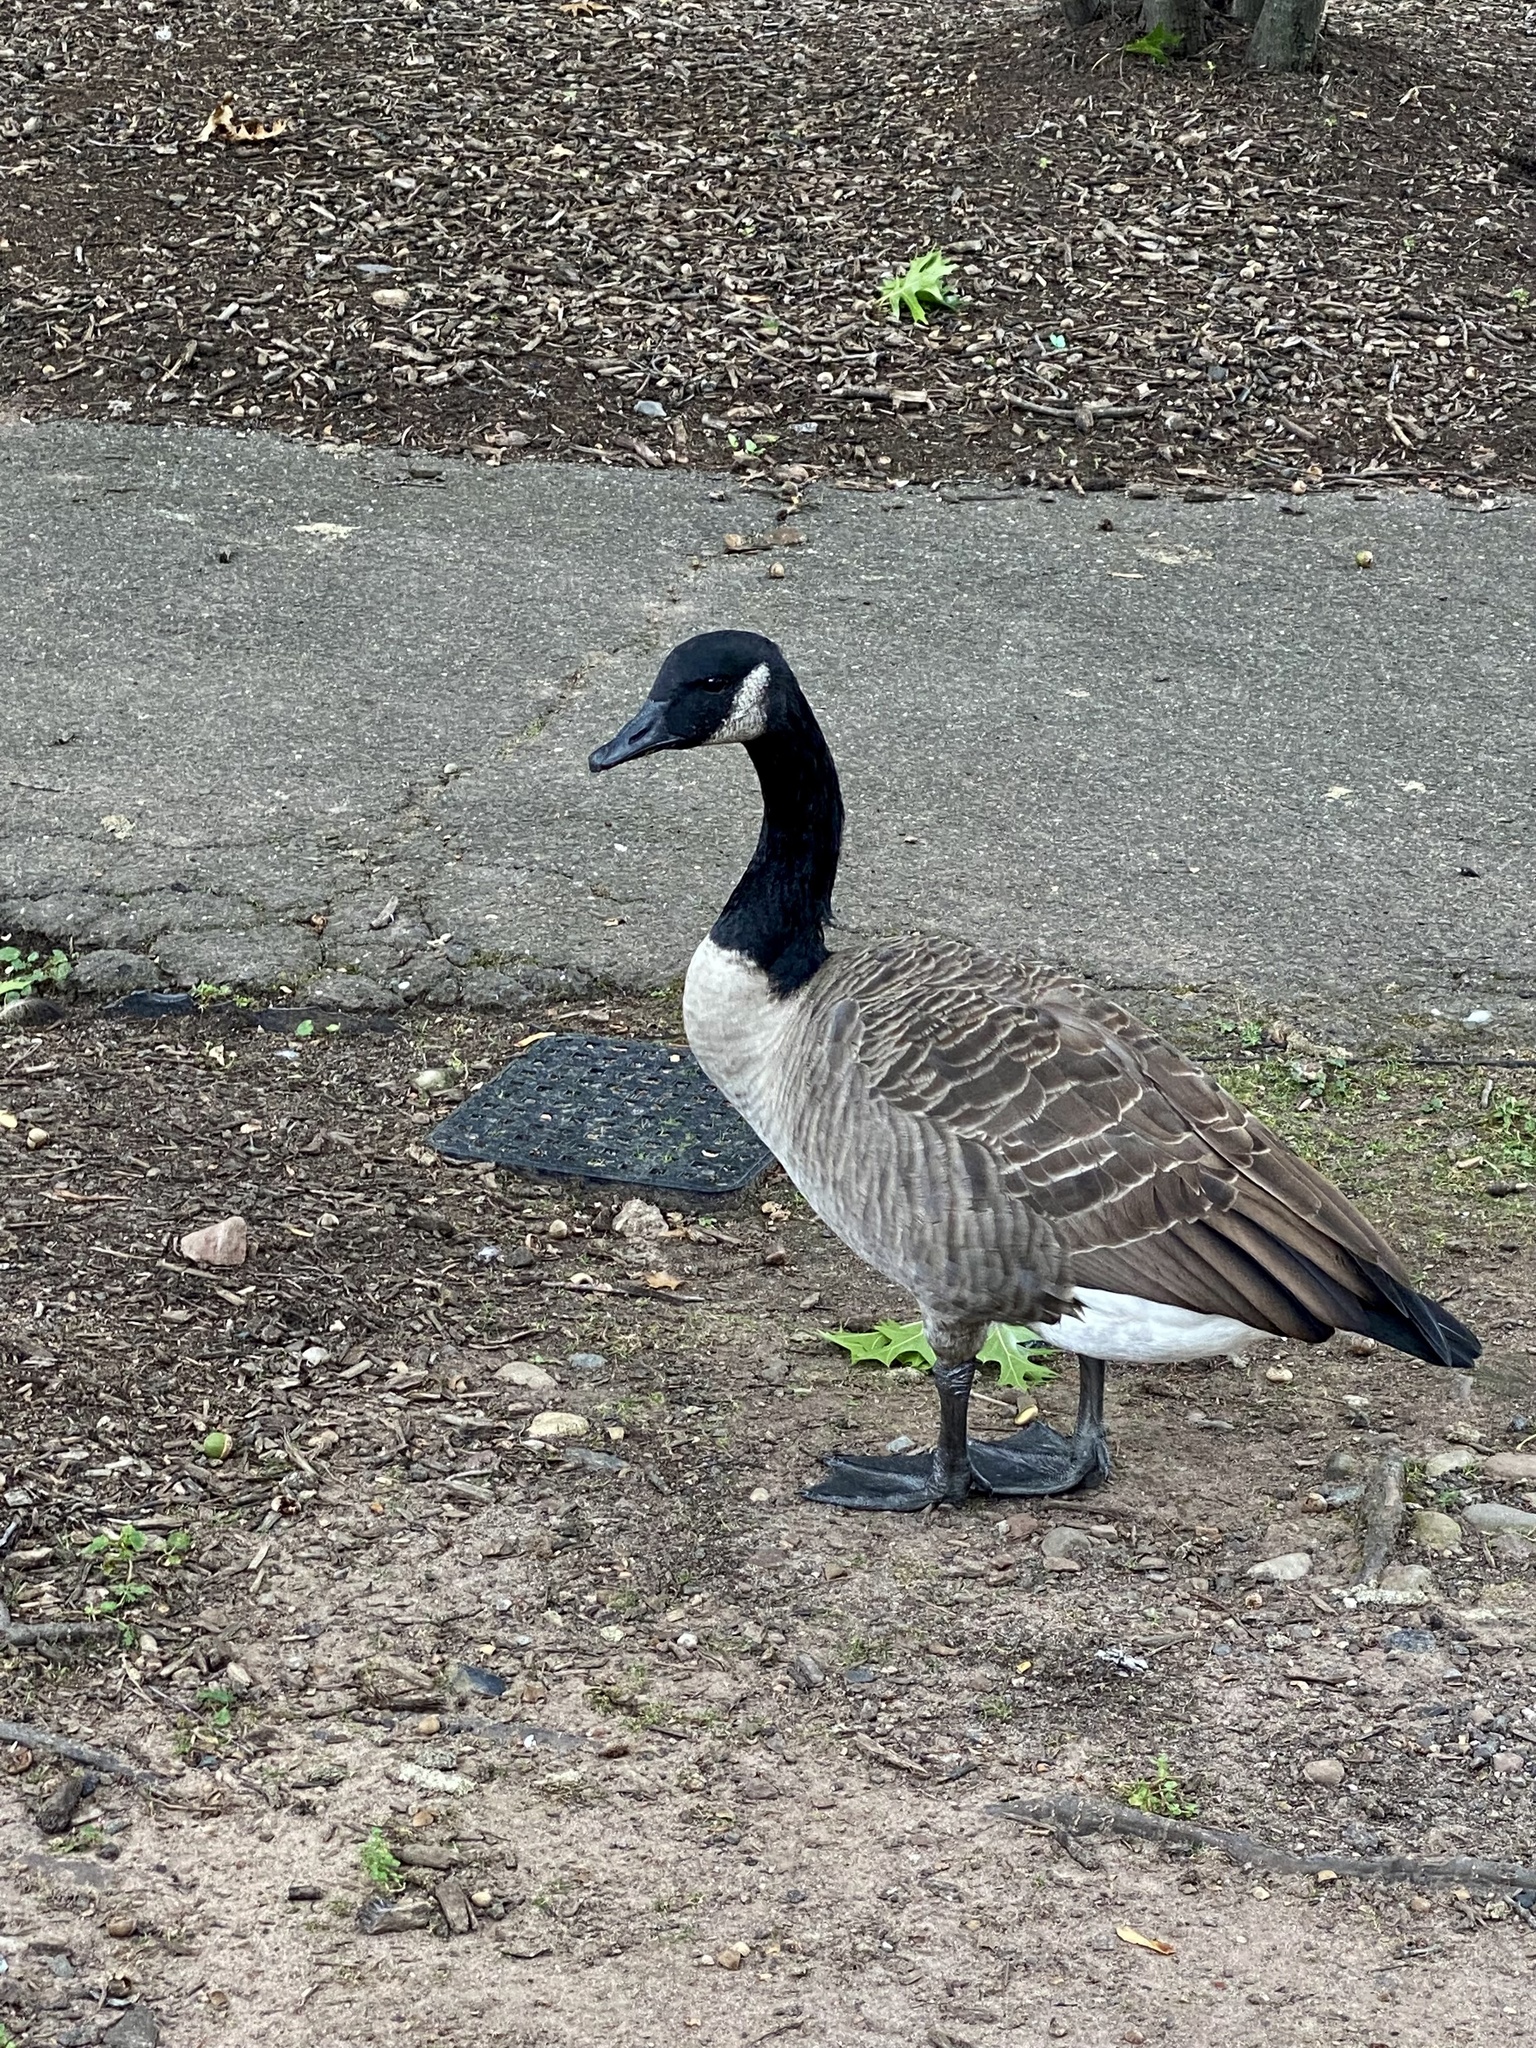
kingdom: Animalia
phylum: Chordata
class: Aves
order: Anseriformes
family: Anatidae
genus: Branta
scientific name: Branta canadensis
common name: Canada goose
